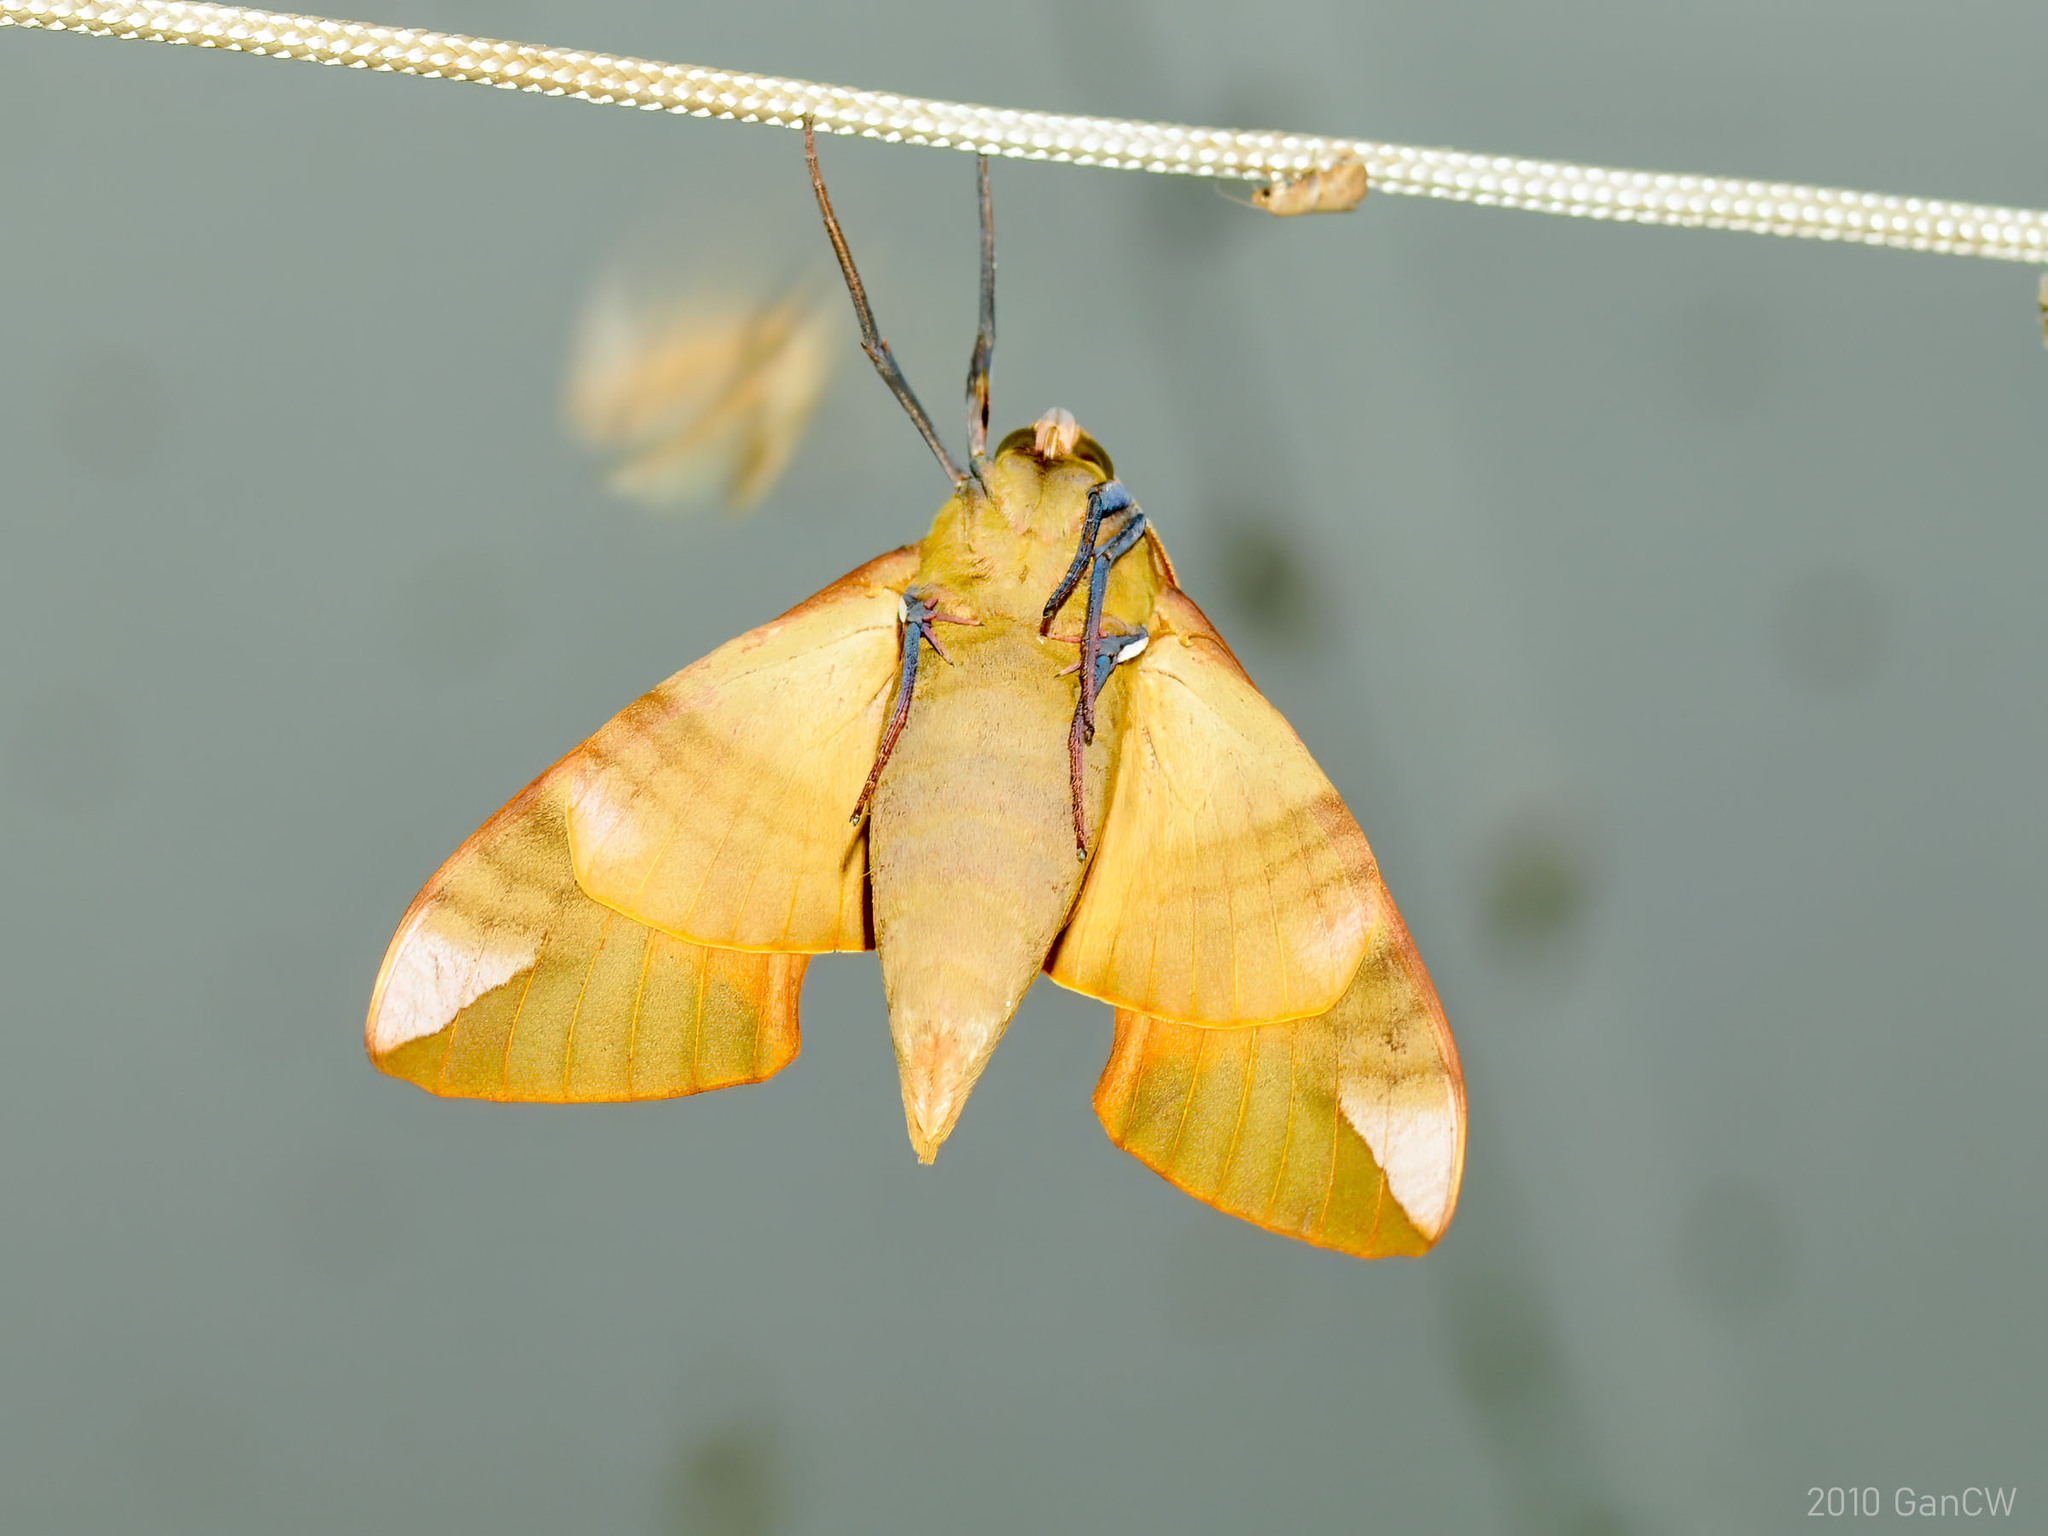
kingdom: Animalia
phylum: Arthropoda
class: Insecta
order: Lepidoptera
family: Sphingidae
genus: Clanis
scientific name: Clanis orhanti
